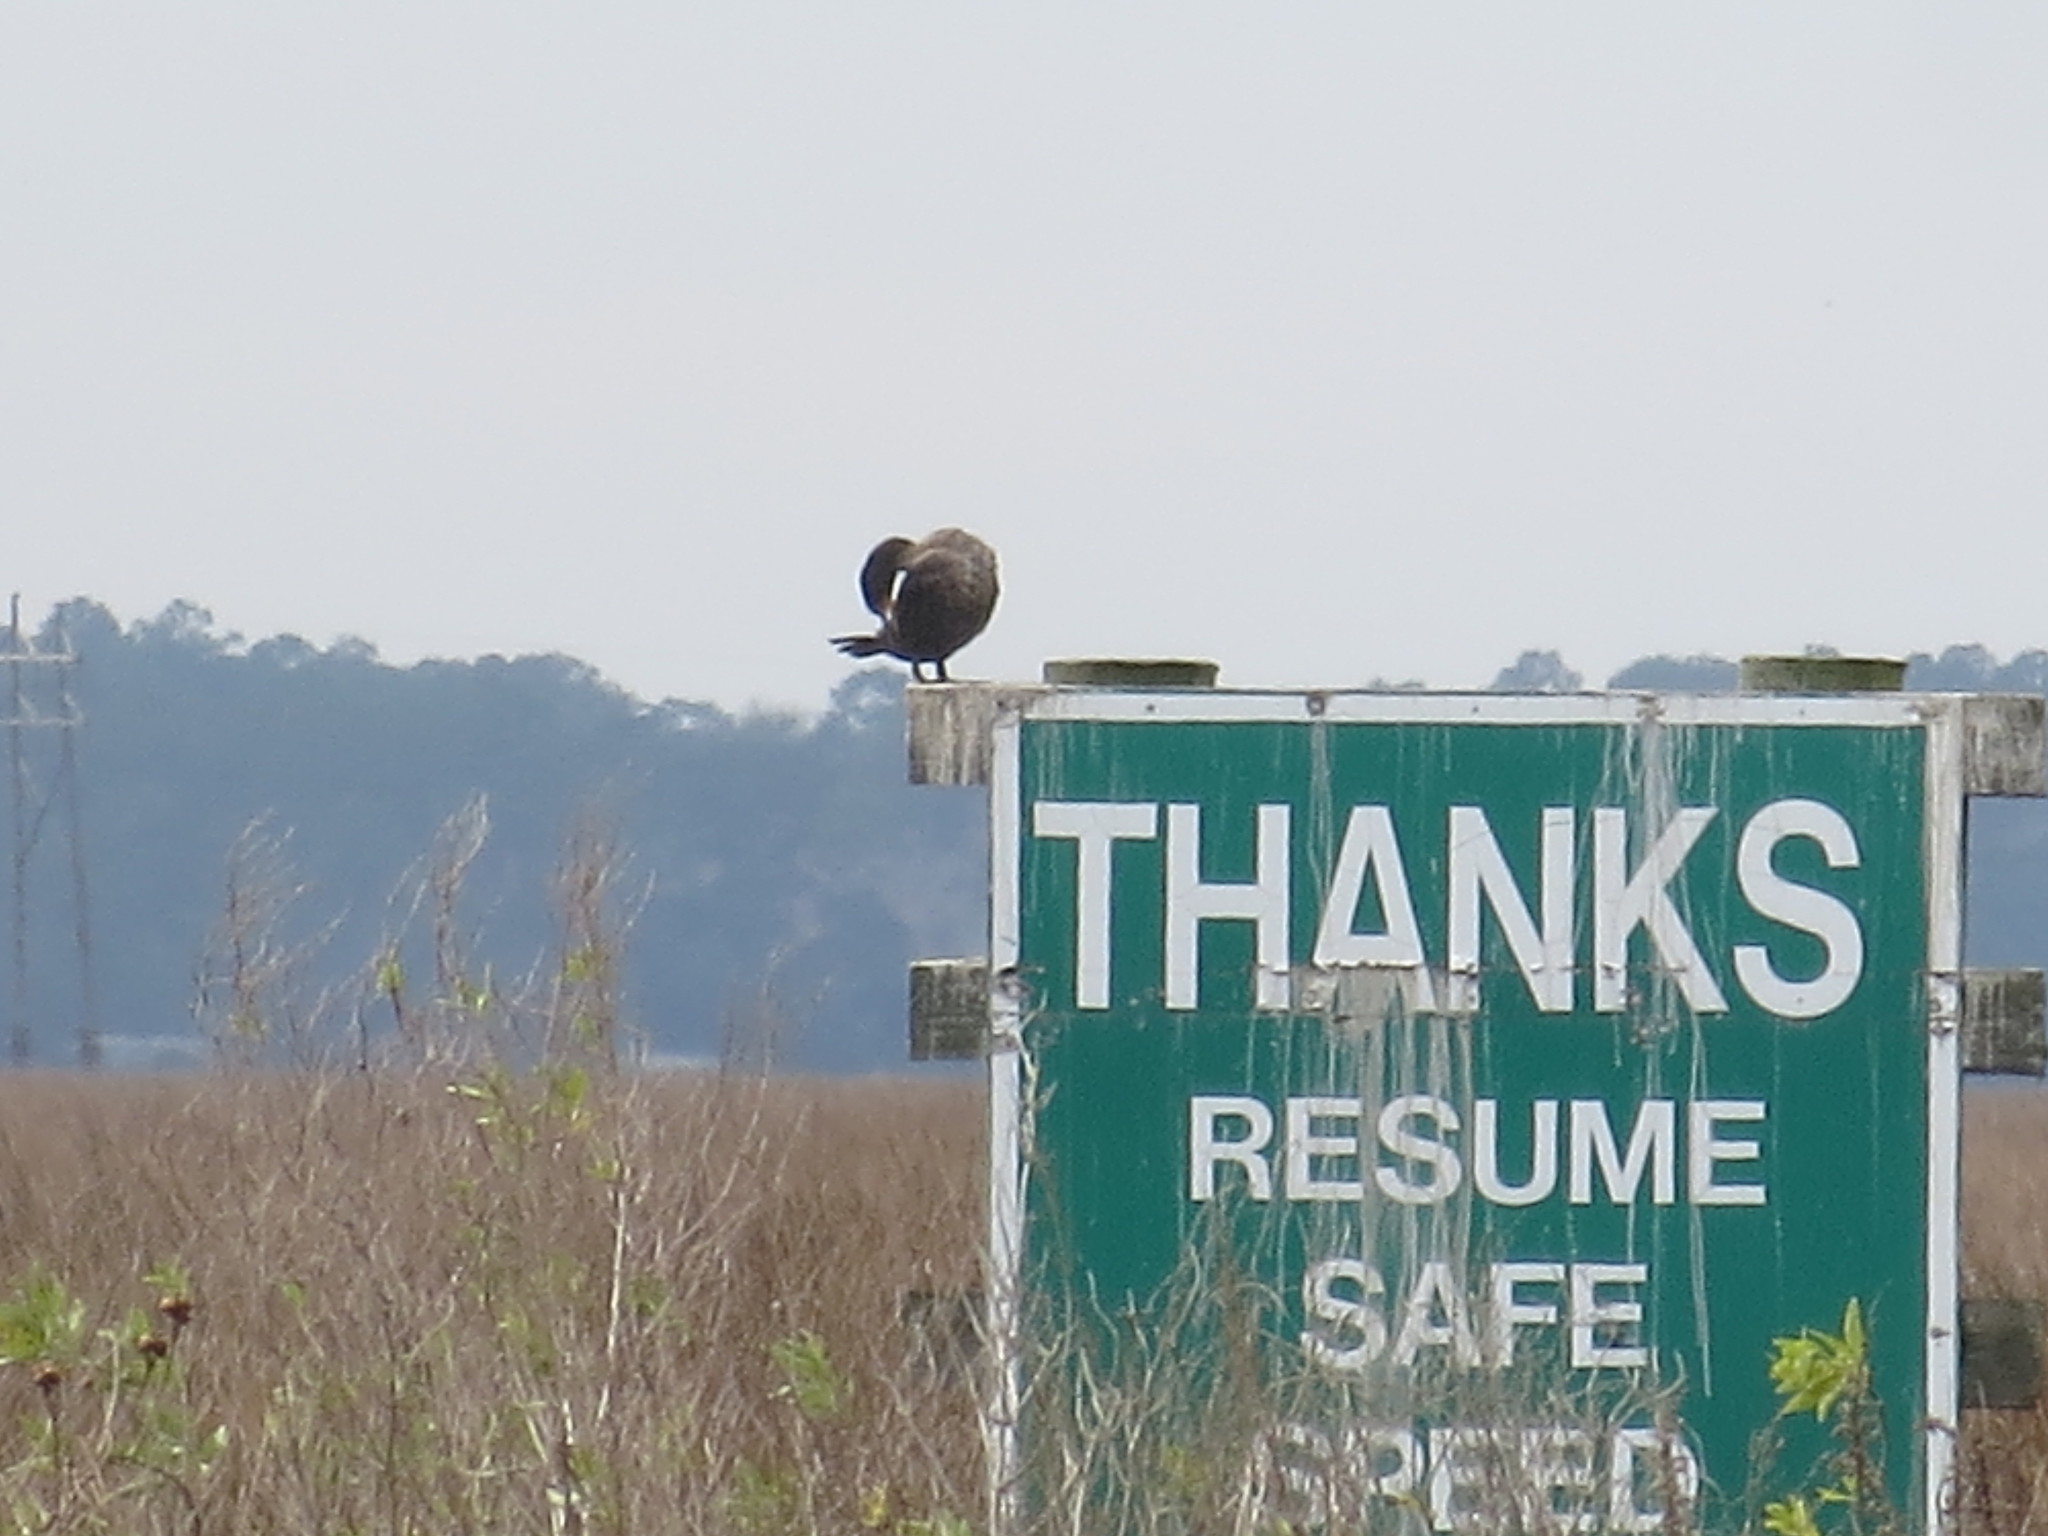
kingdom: Animalia
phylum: Chordata
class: Aves
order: Suliformes
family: Phalacrocoracidae
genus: Phalacrocorax
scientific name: Phalacrocorax auritus
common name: Double-crested cormorant
